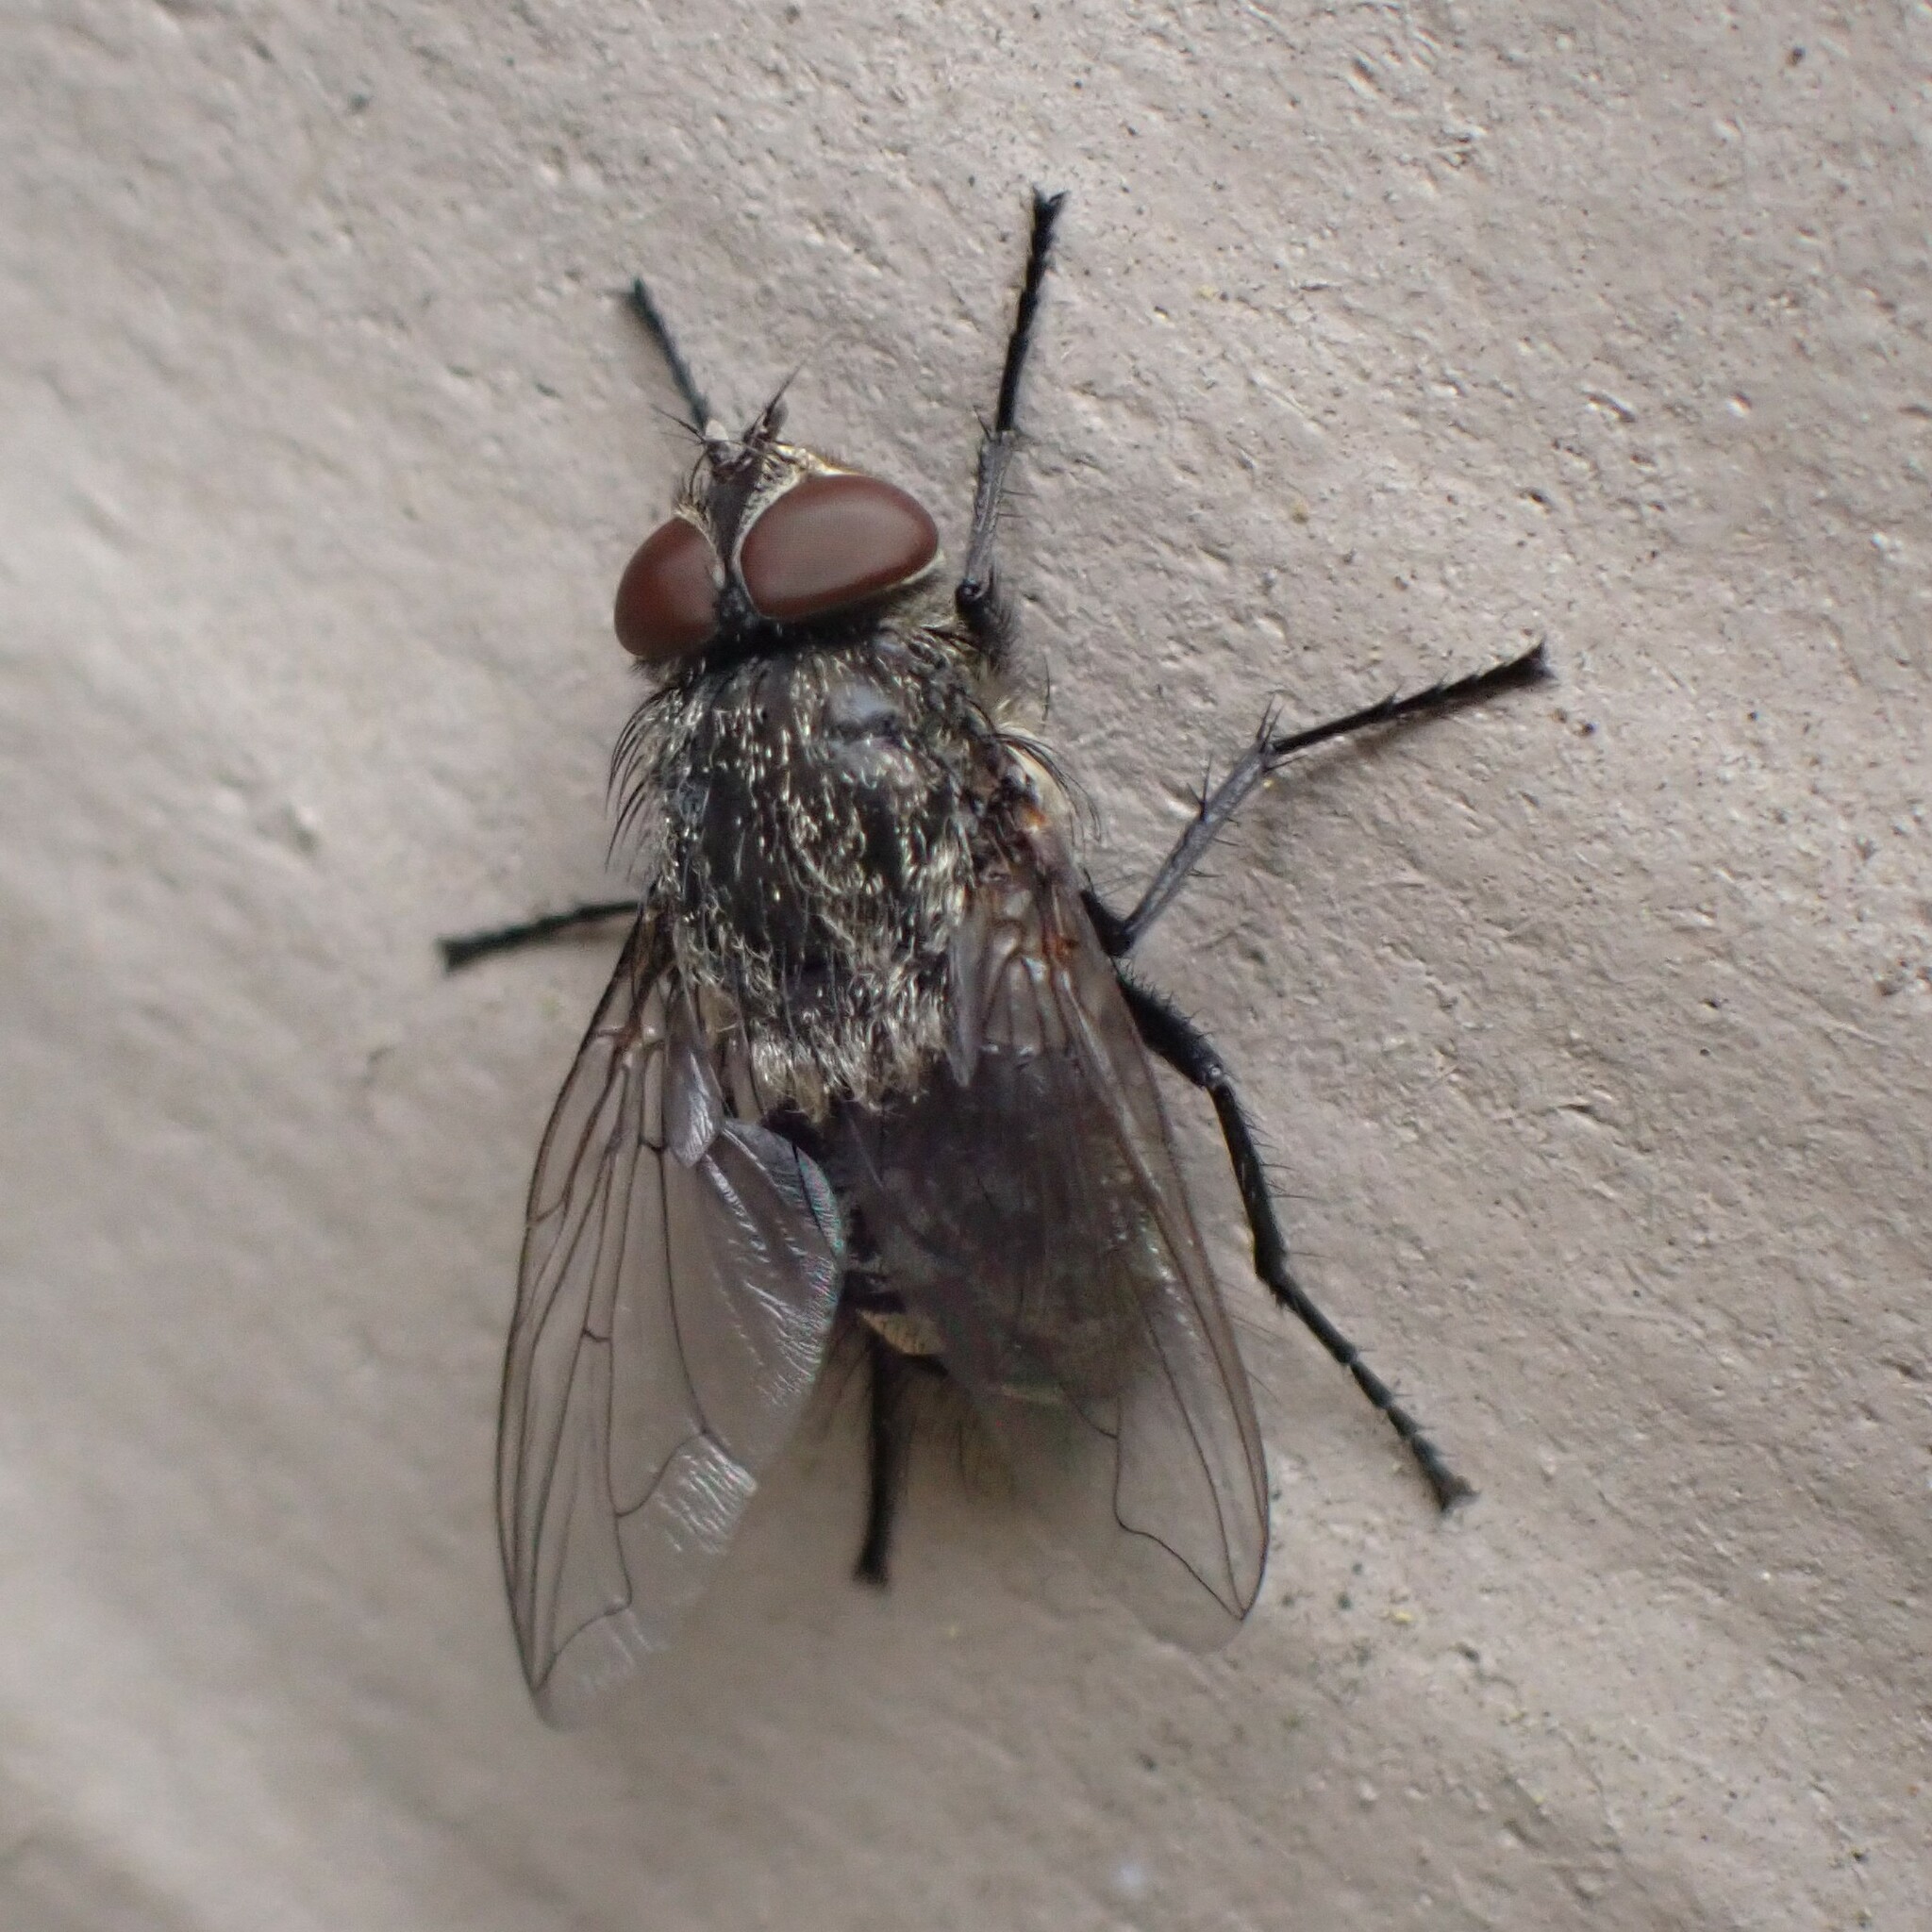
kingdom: Animalia
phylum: Arthropoda
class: Insecta
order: Diptera
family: Polleniidae
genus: Pollenia
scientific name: Pollenia
